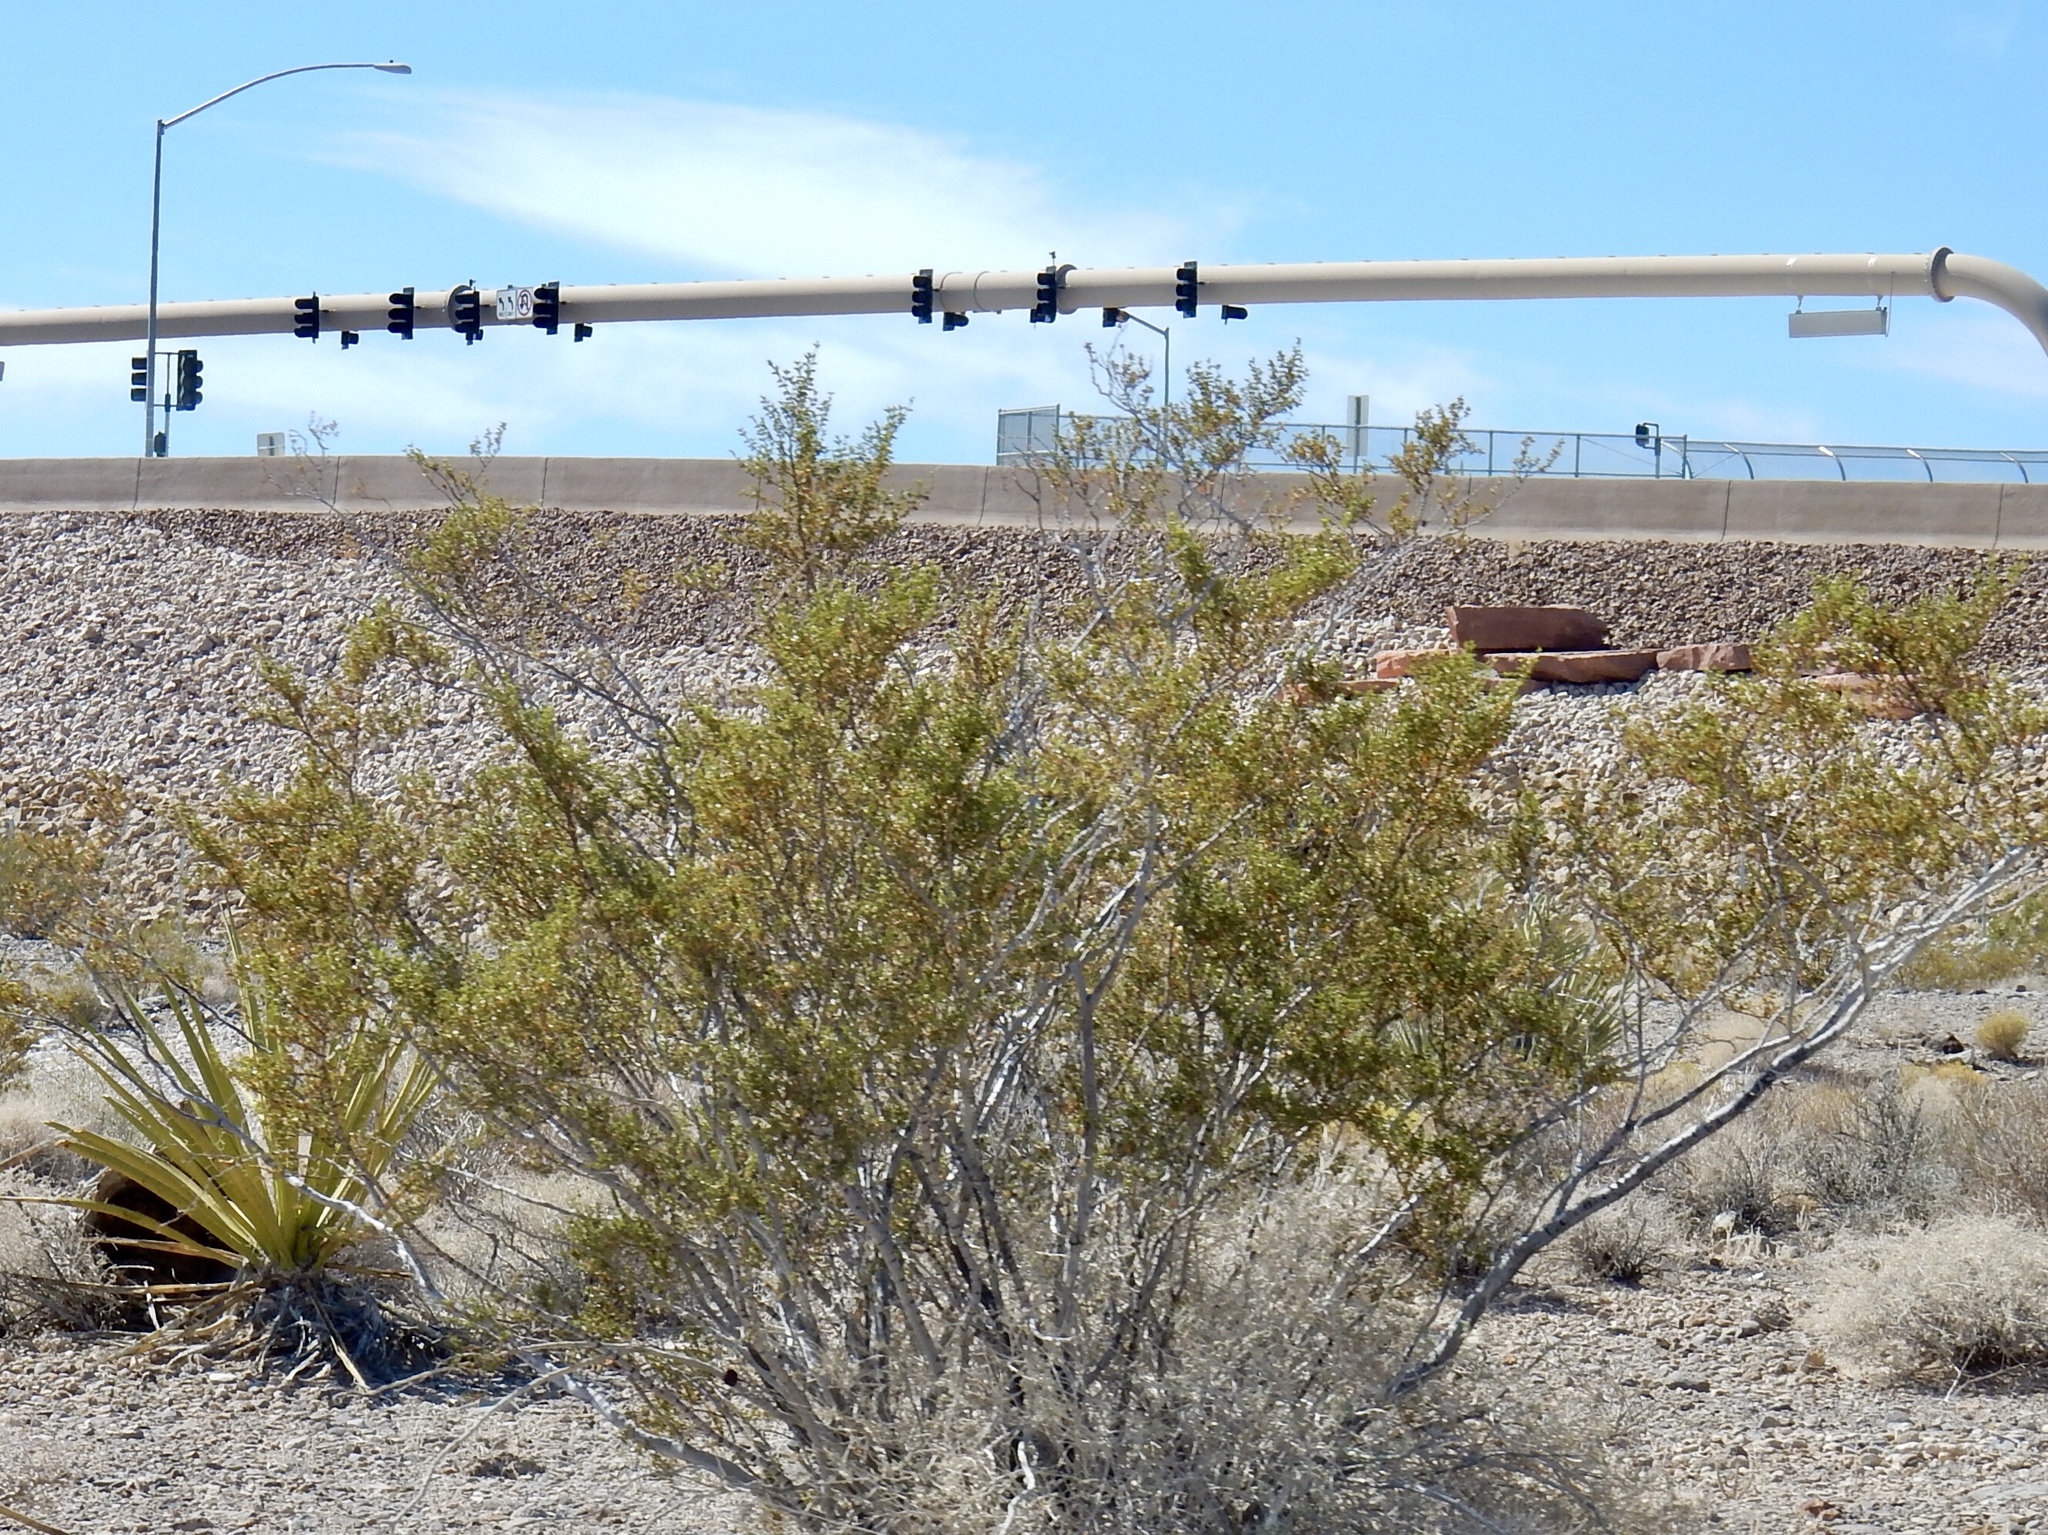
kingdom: Plantae
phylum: Tracheophyta
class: Magnoliopsida
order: Zygophyllales
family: Zygophyllaceae
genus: Larrea
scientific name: Larrea tridentata
